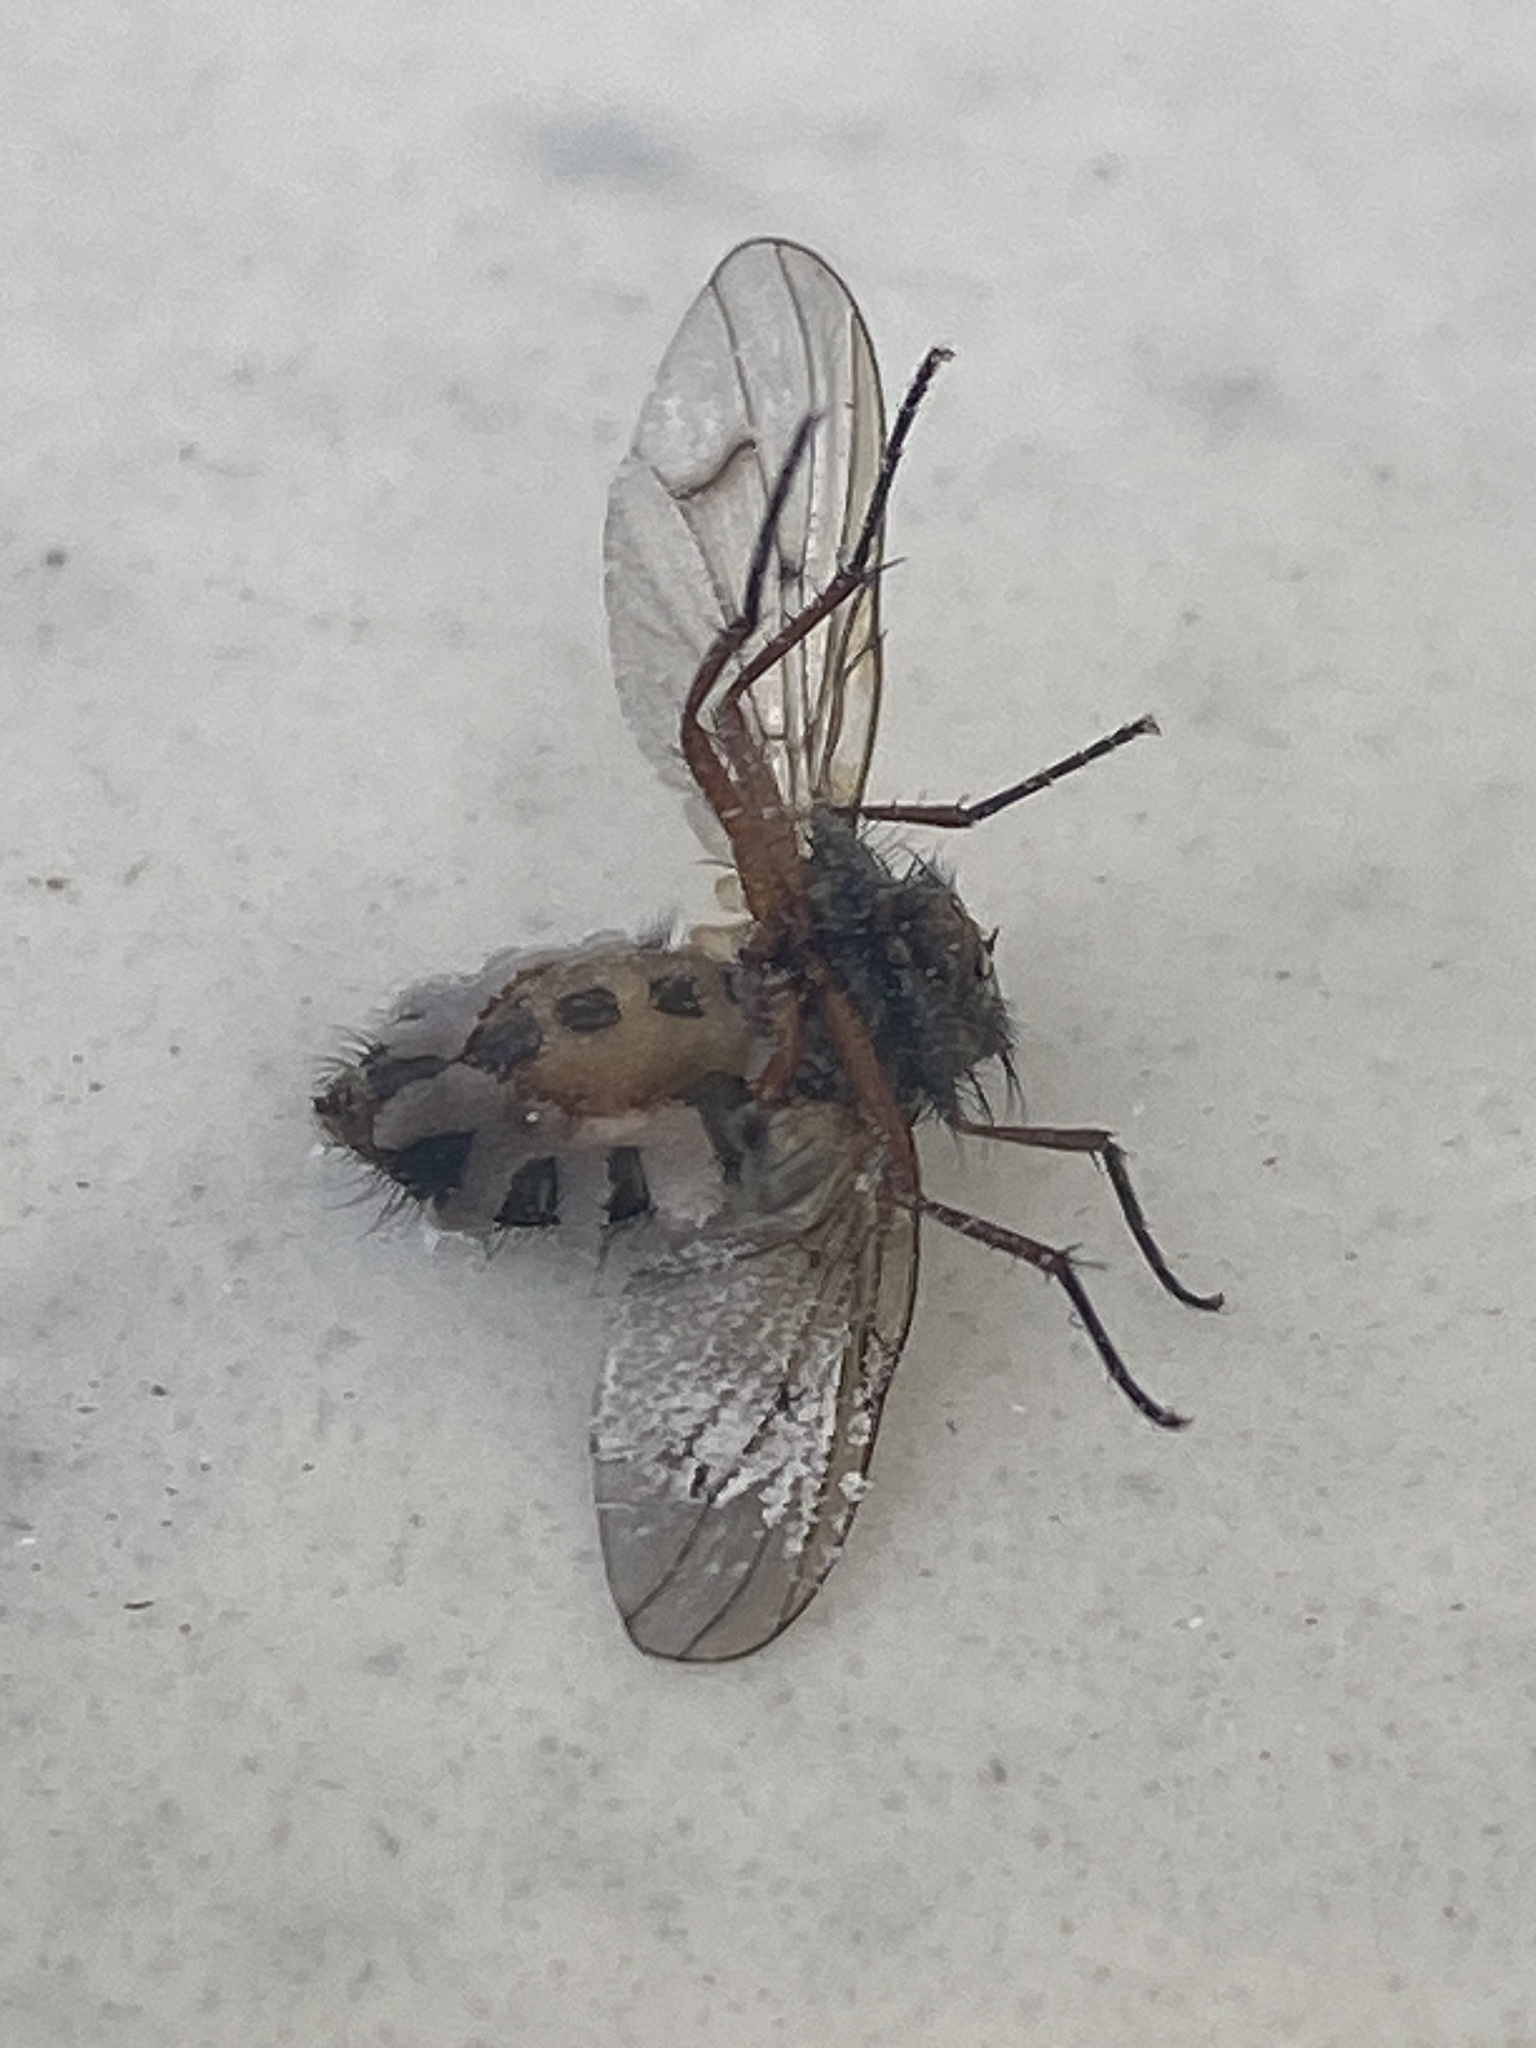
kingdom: Fungi
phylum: Entomophthoromycota
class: Entomophthoromycetes
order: Entomophthorales
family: Entomophthoraceae
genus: Entomophthora
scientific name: Entomophthora muscae
